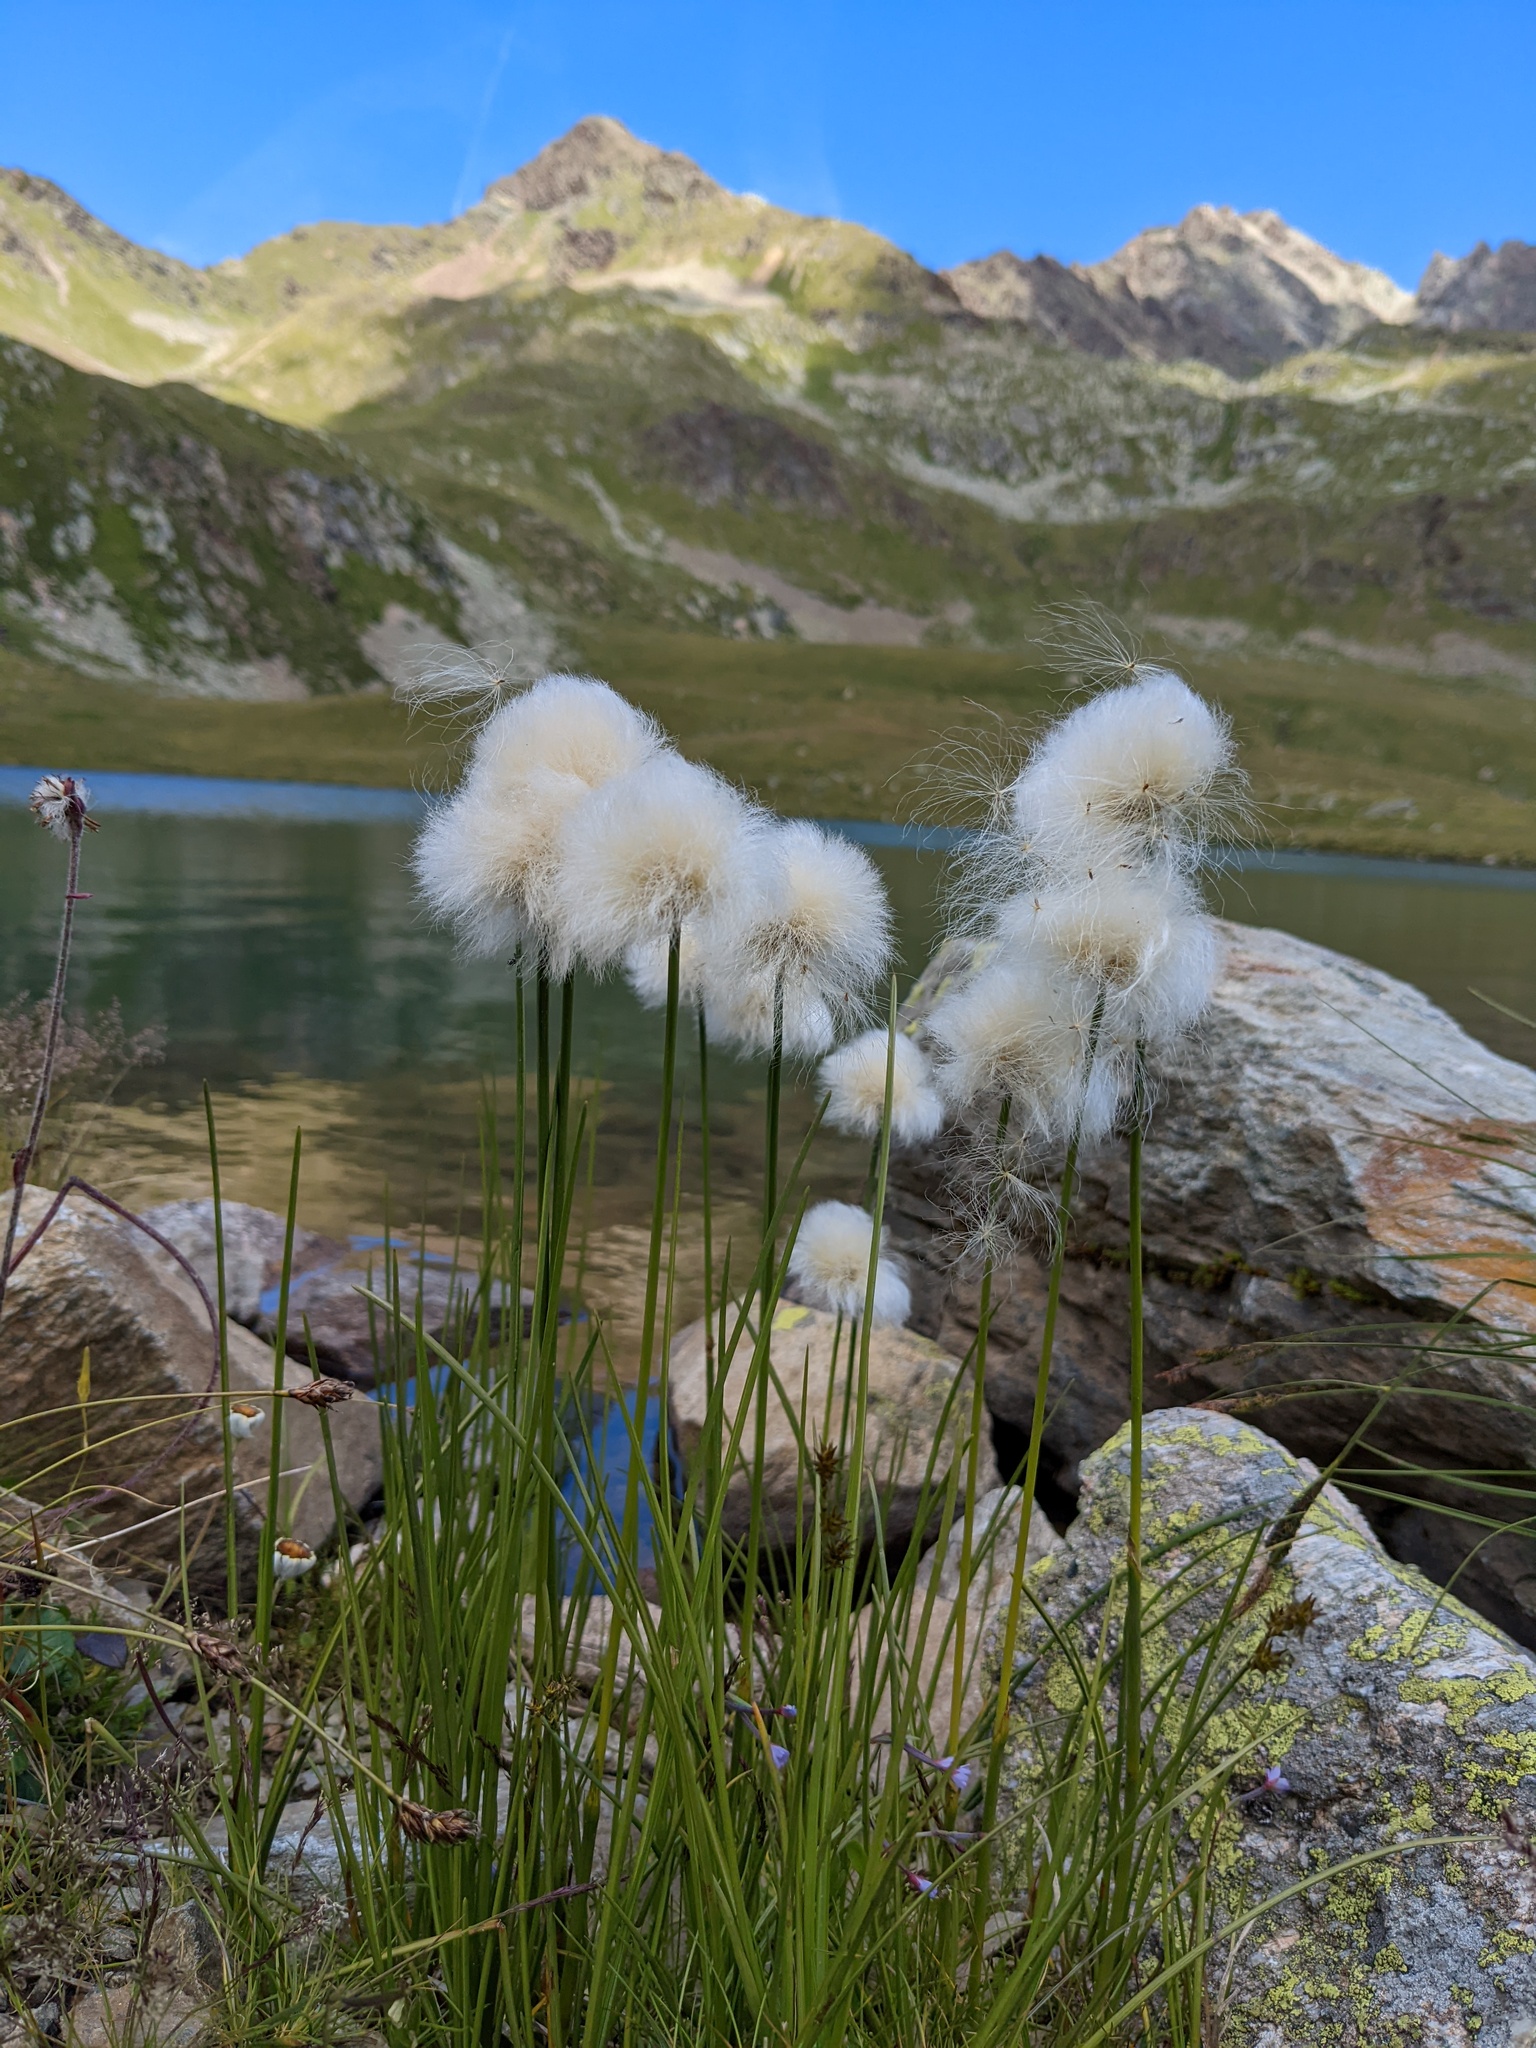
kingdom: Plantae
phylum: Tracheophyta
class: Liliopsida
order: Poales
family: Cyperaceae
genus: Eriophorum
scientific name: Eriophorum scheuchzeri
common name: Scheuchzer's cottongrass
